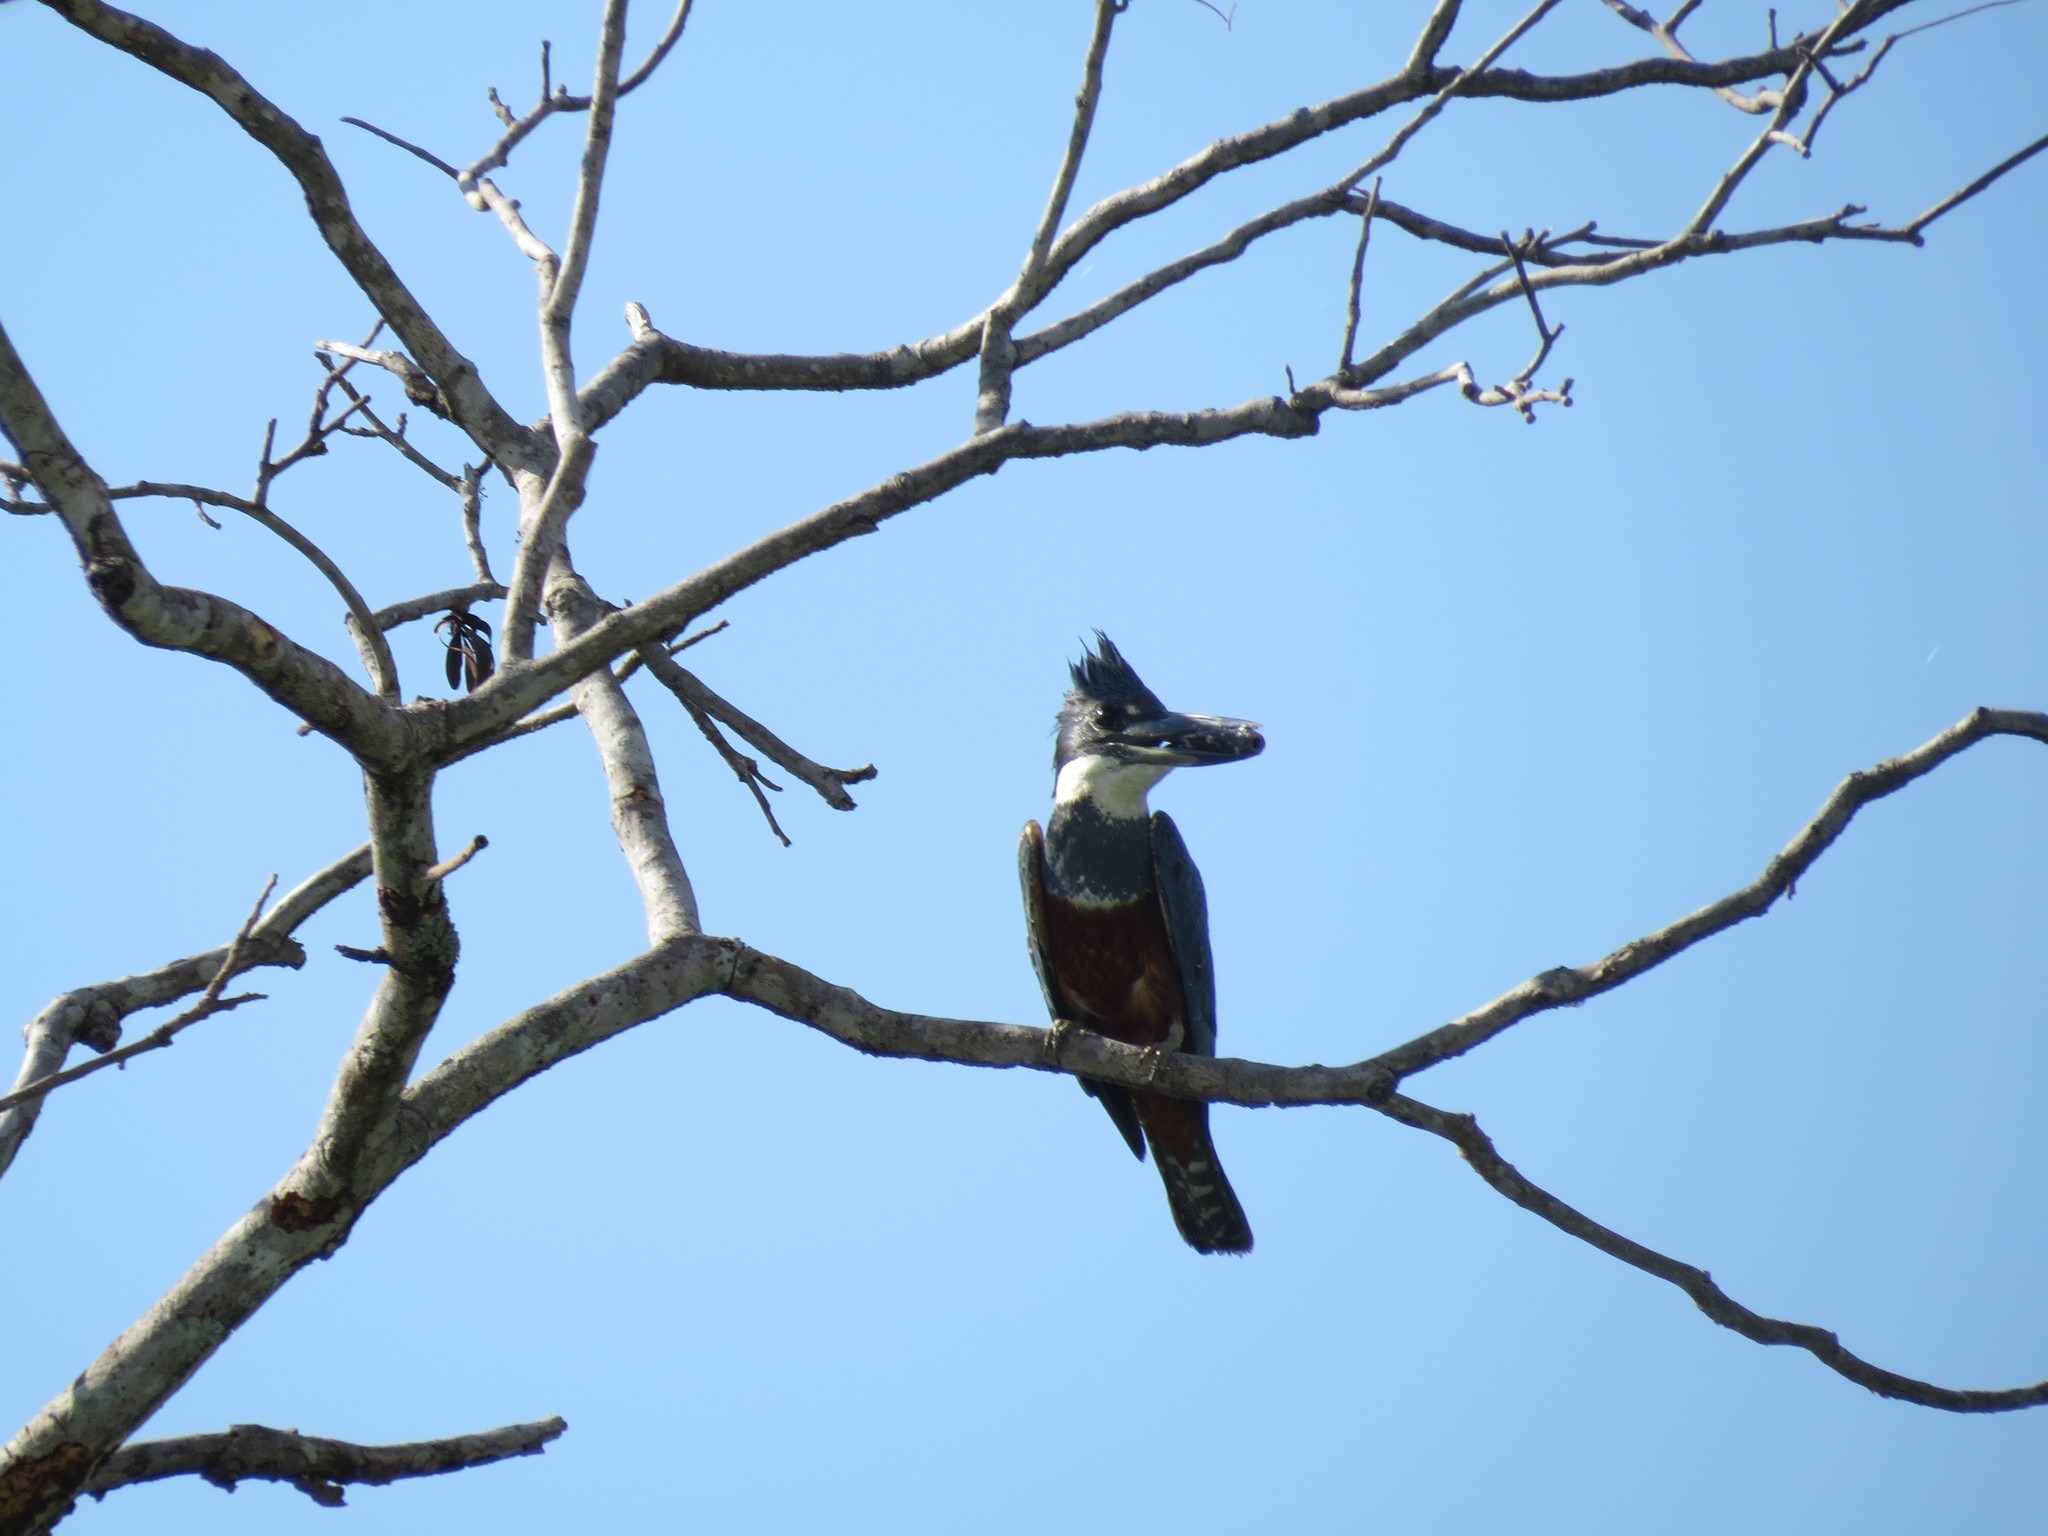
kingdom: Animalia
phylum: Chordata
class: Aves
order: Coraciiformes
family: Alcedinidae
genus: Megaceryle
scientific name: Megaceryle torquata
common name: Ringed kingfisher
